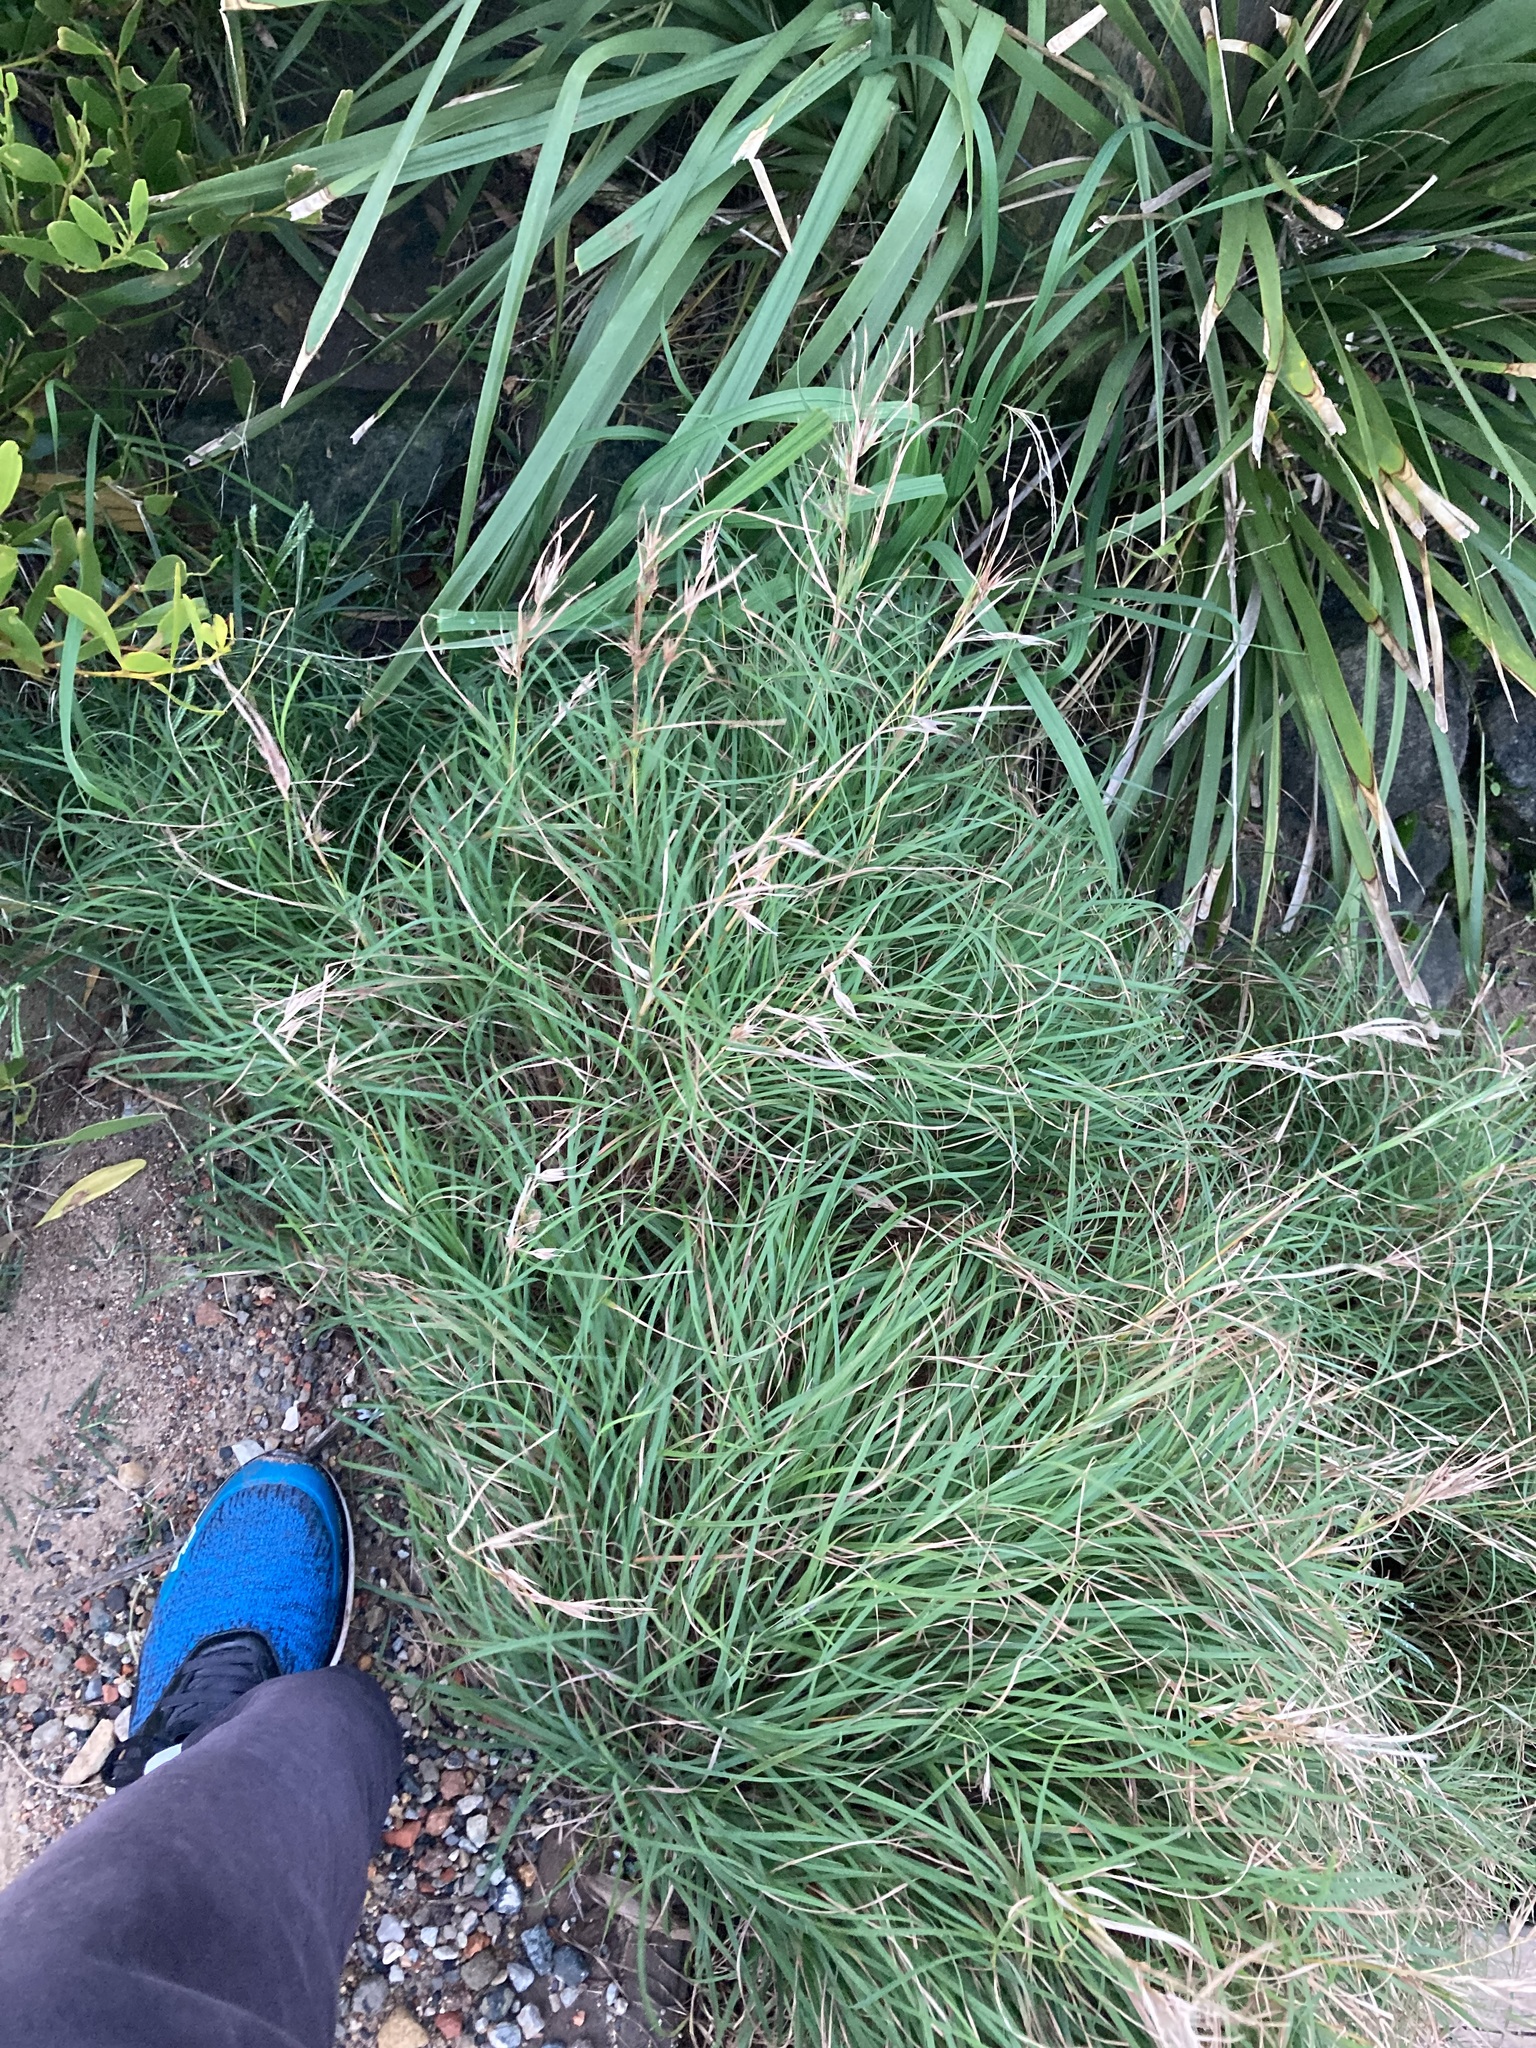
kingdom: Plantae
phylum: Tracheophyta
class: Liliopsida
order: Poales
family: Poaceae
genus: Themeda
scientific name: Themeda triandra
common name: Kangaroo grass
